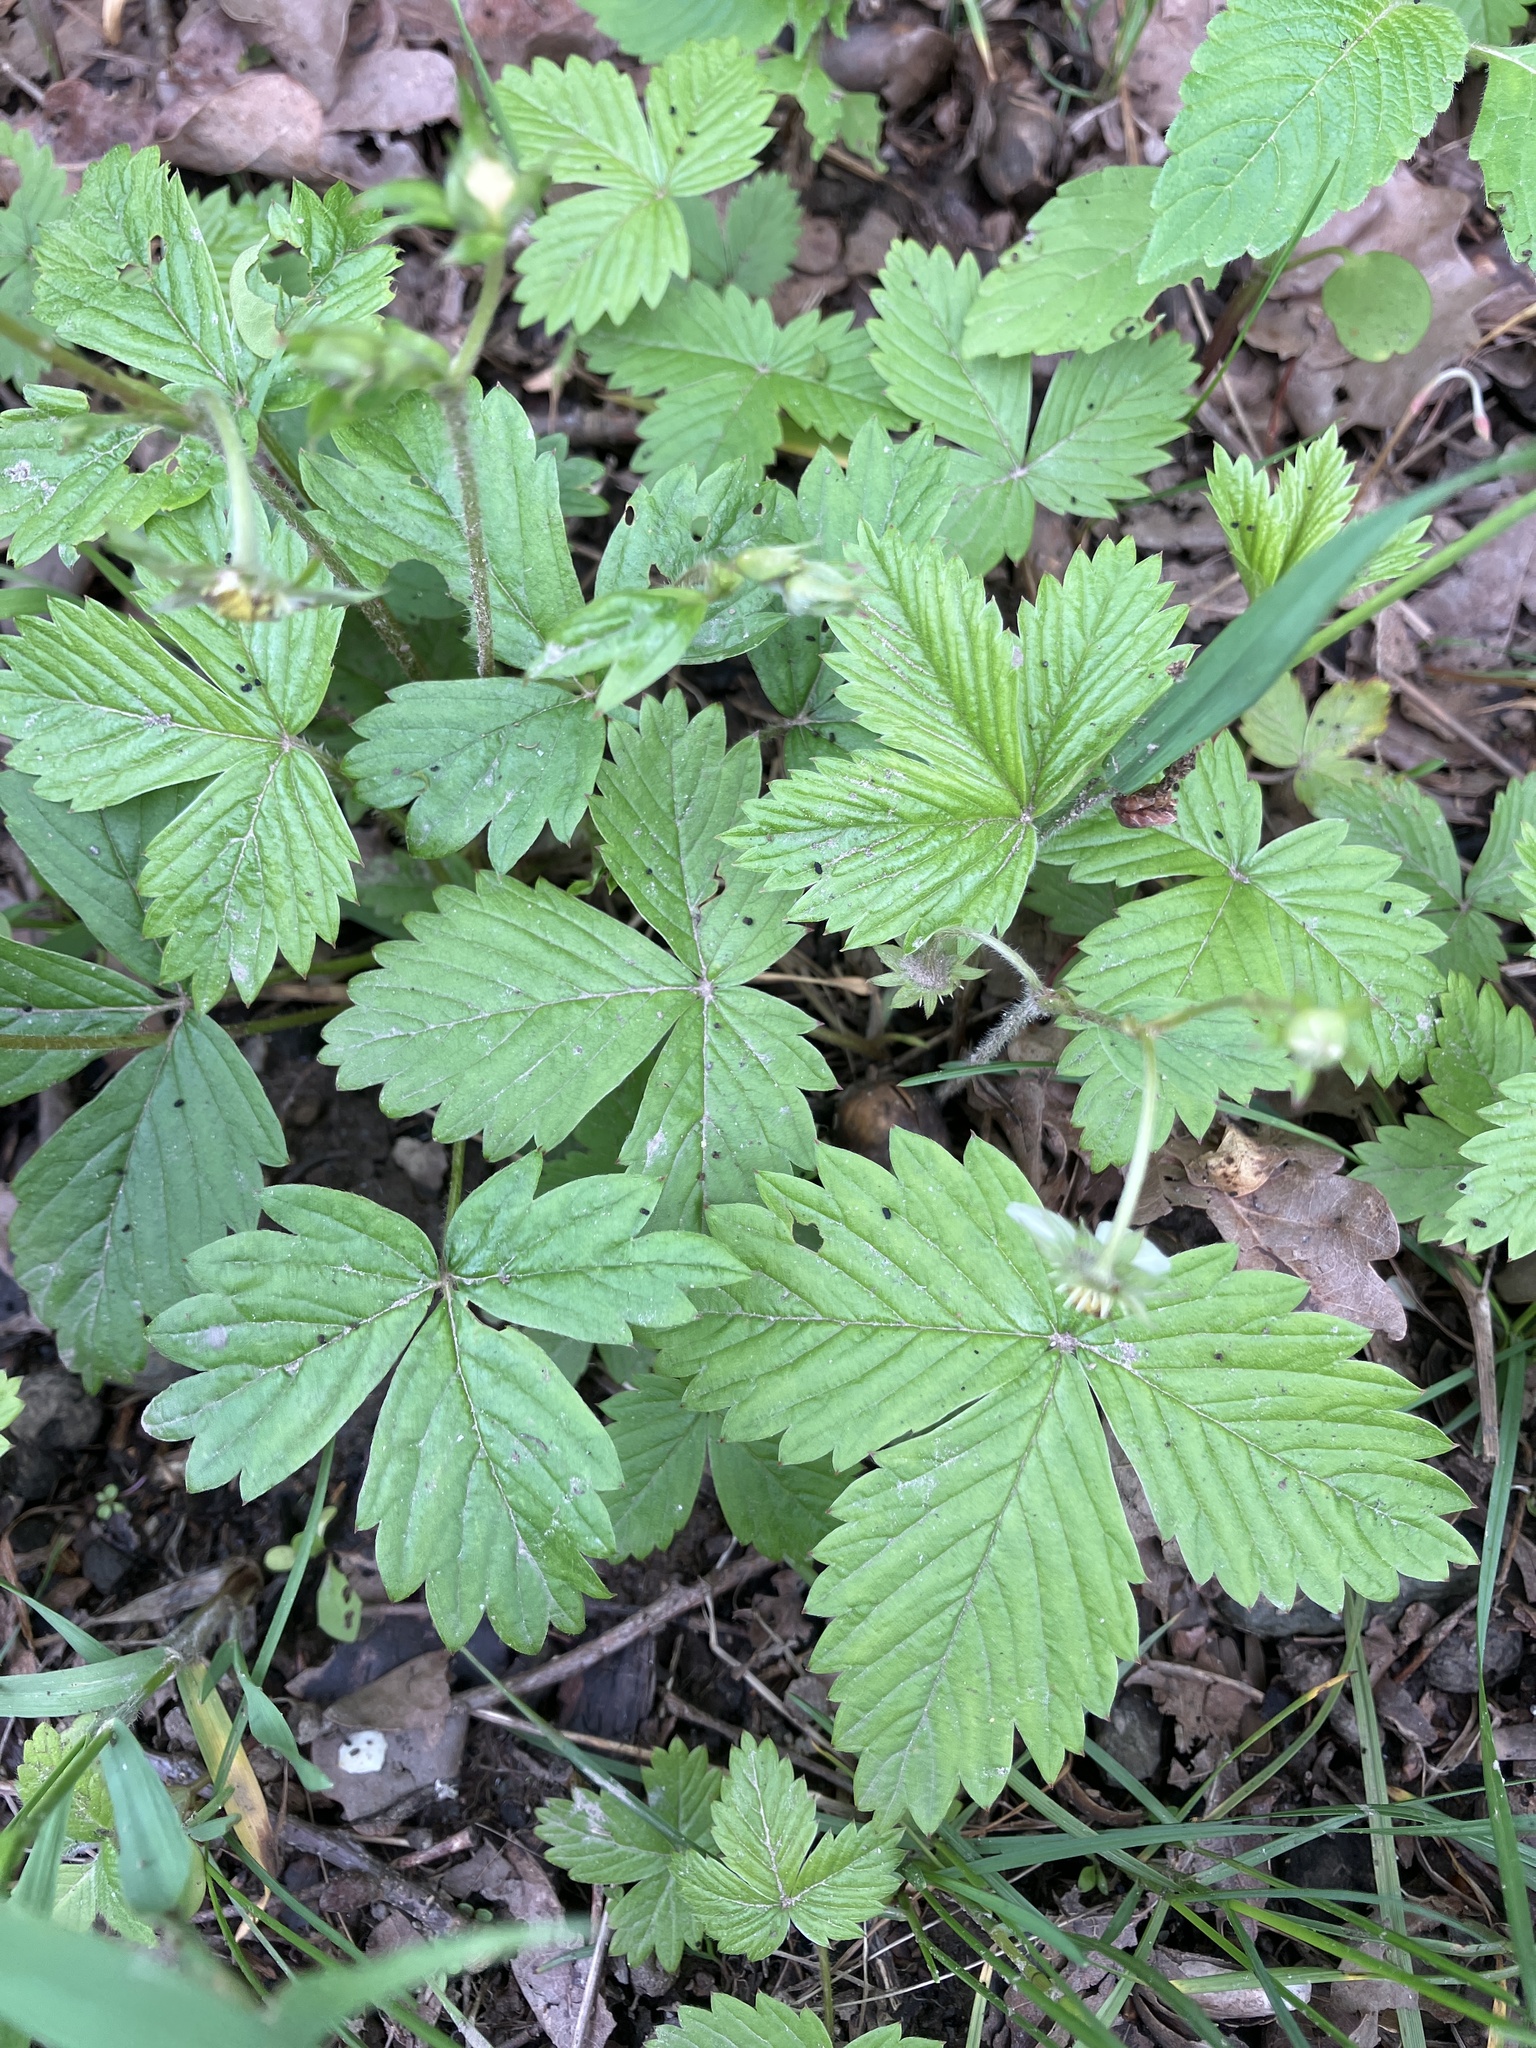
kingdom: Plantae
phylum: Tracheophyta
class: Magnoliopsida
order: Rosales
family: Rosaceae
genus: Fragaria
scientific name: Fragaria vesca
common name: Wild strawberry
